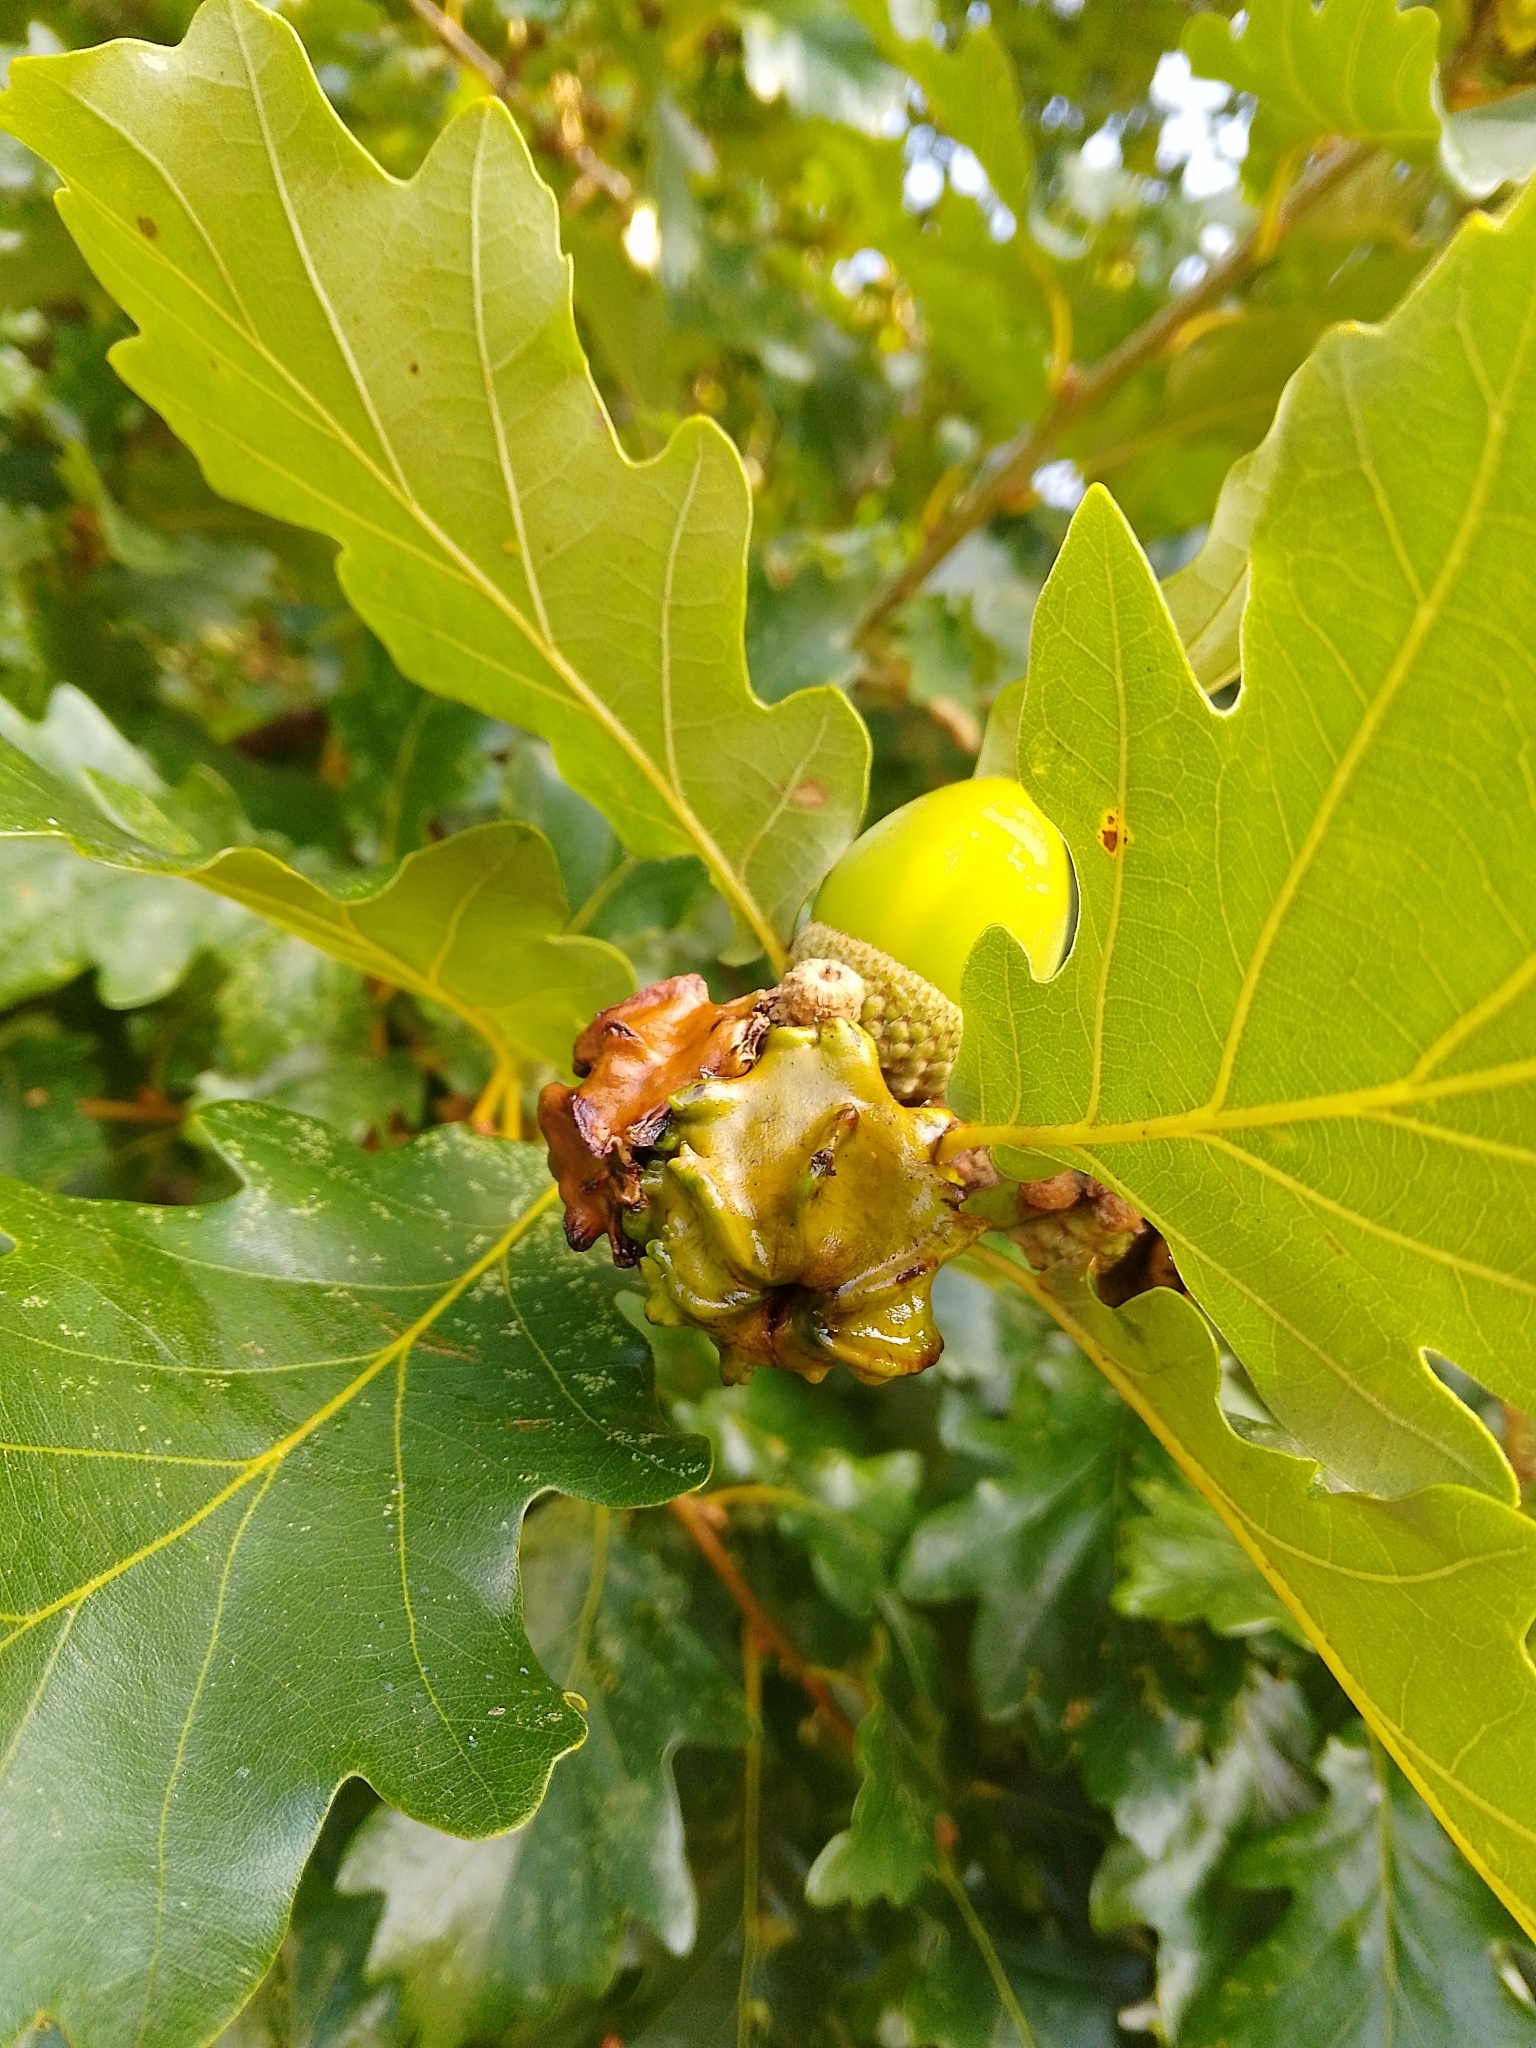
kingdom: Animalia
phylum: Arthropoda
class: Insecta
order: Hymenoptera
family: Cynipidae
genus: Andricus
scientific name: Andricus quercuscalicis
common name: Knopper gall
